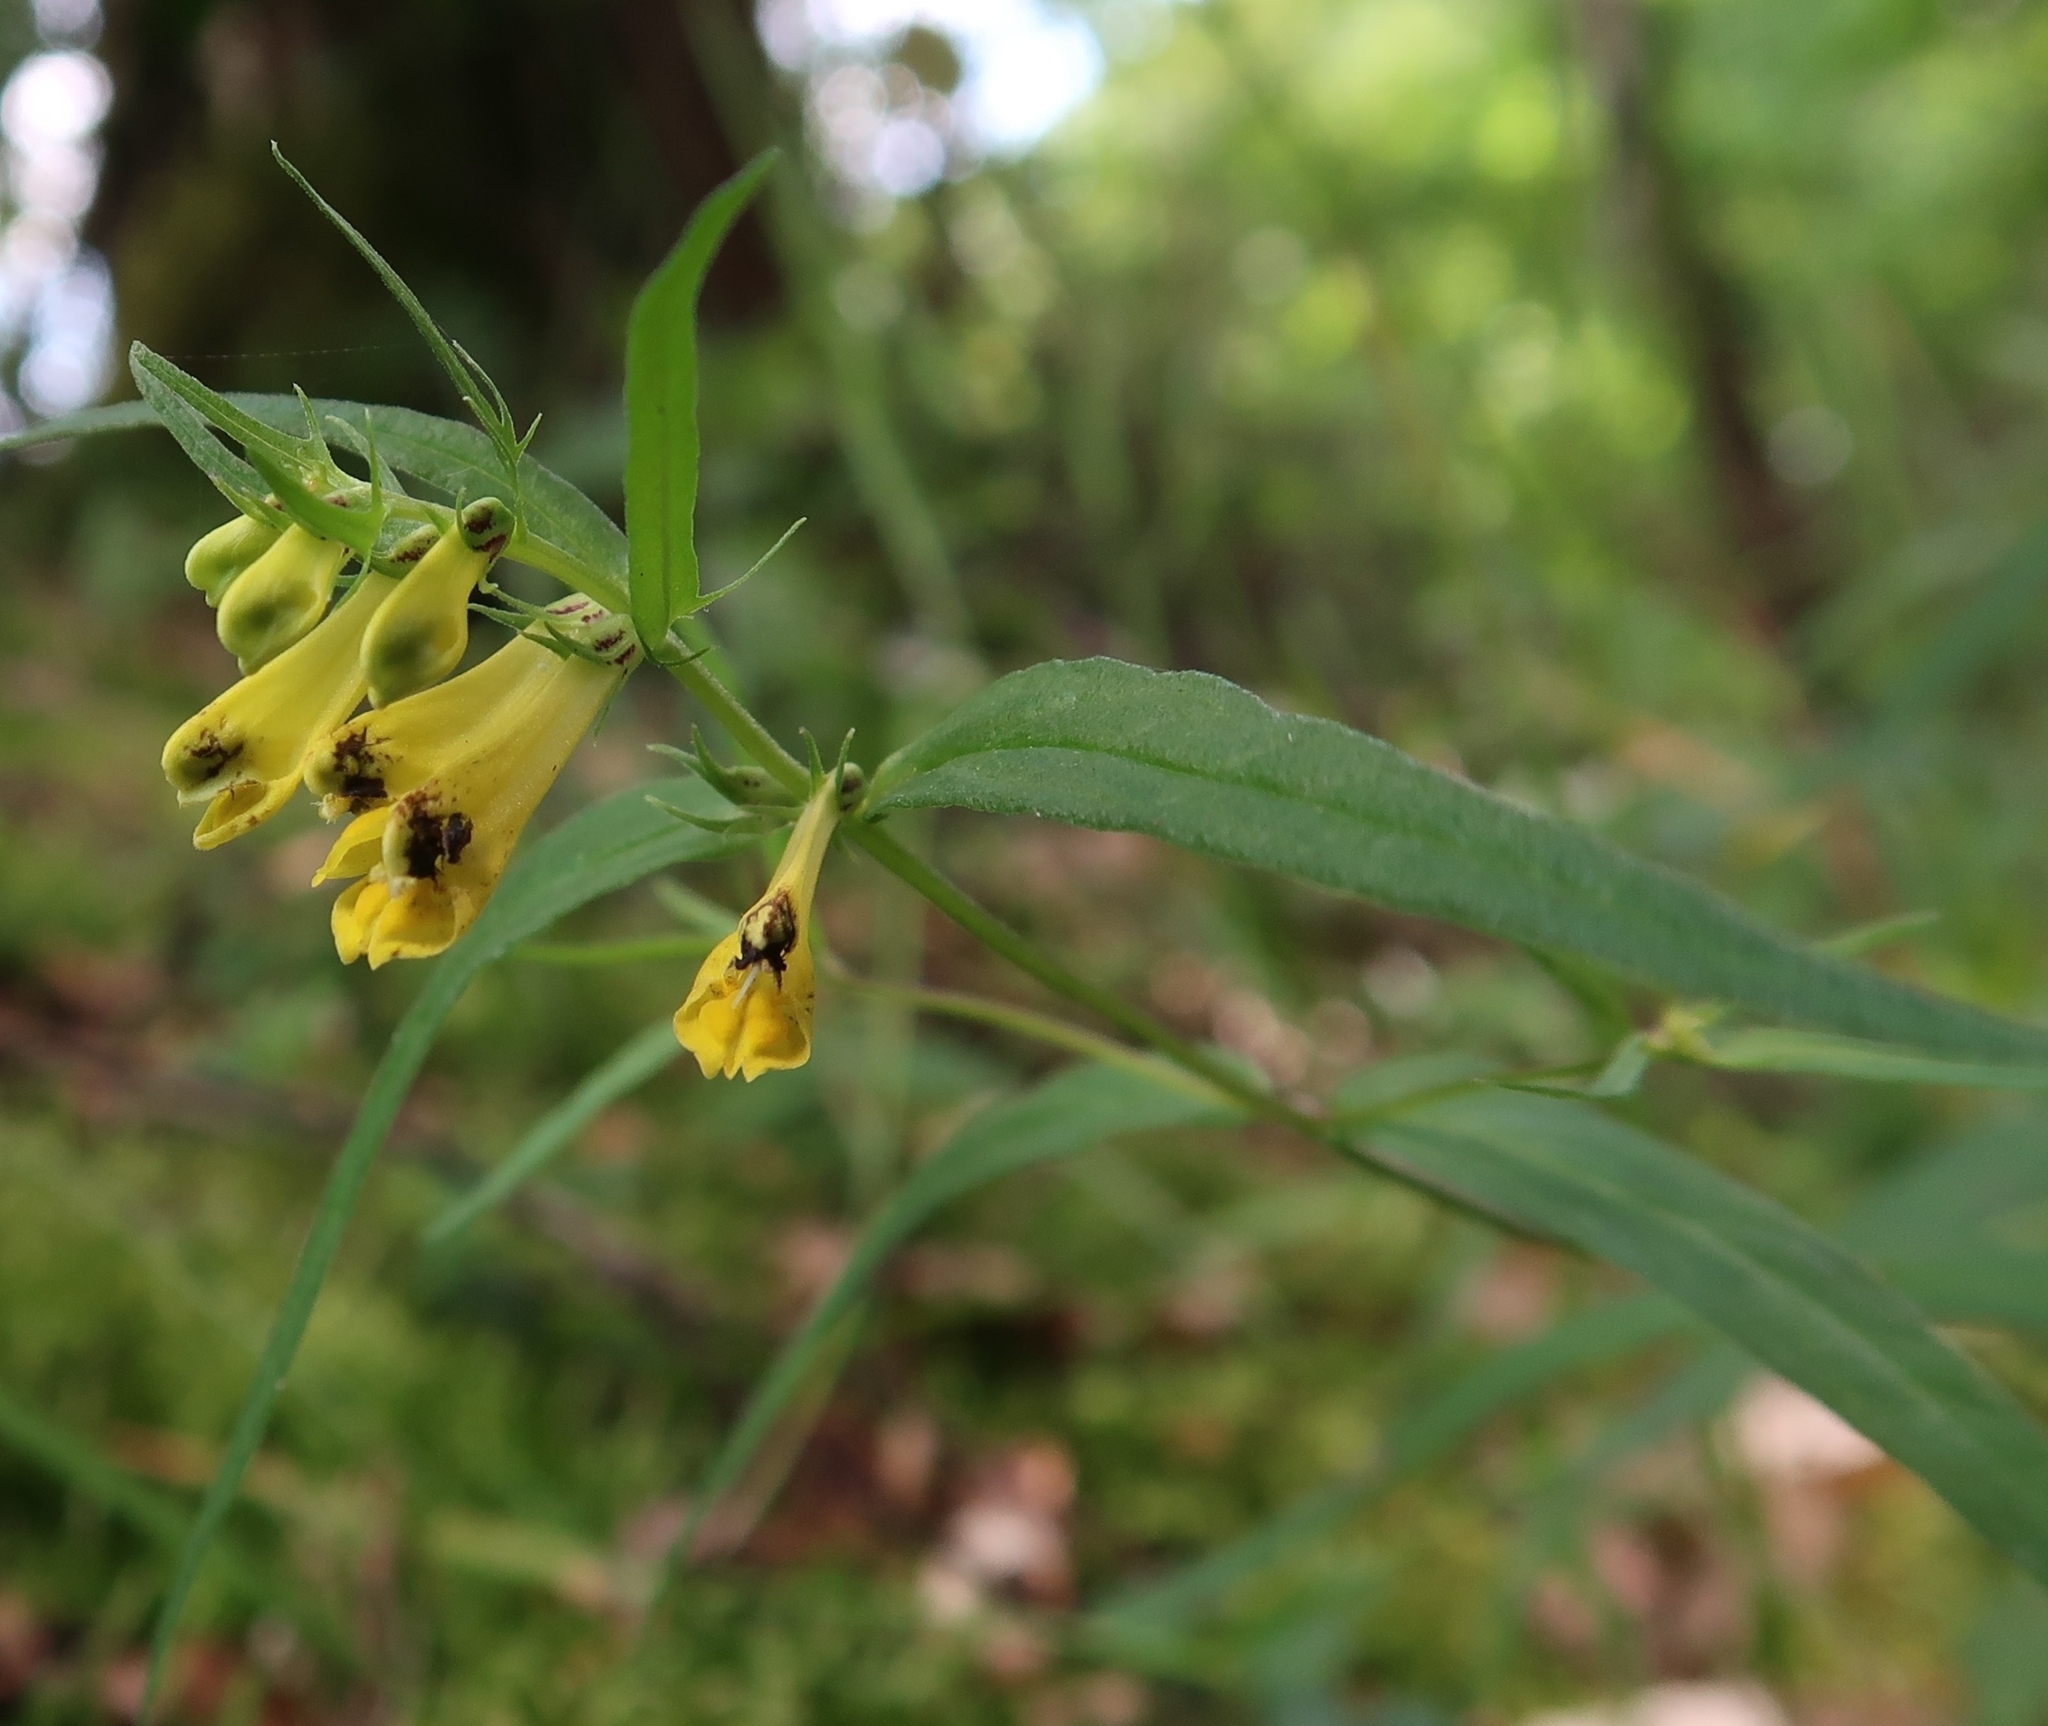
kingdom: Plantae
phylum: Tracheophyta
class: Magnoliopsida
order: Lamiales
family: Orobanchaceae
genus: Melampyrum
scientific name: Melampyrum pratense
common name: Common cow-wheat
